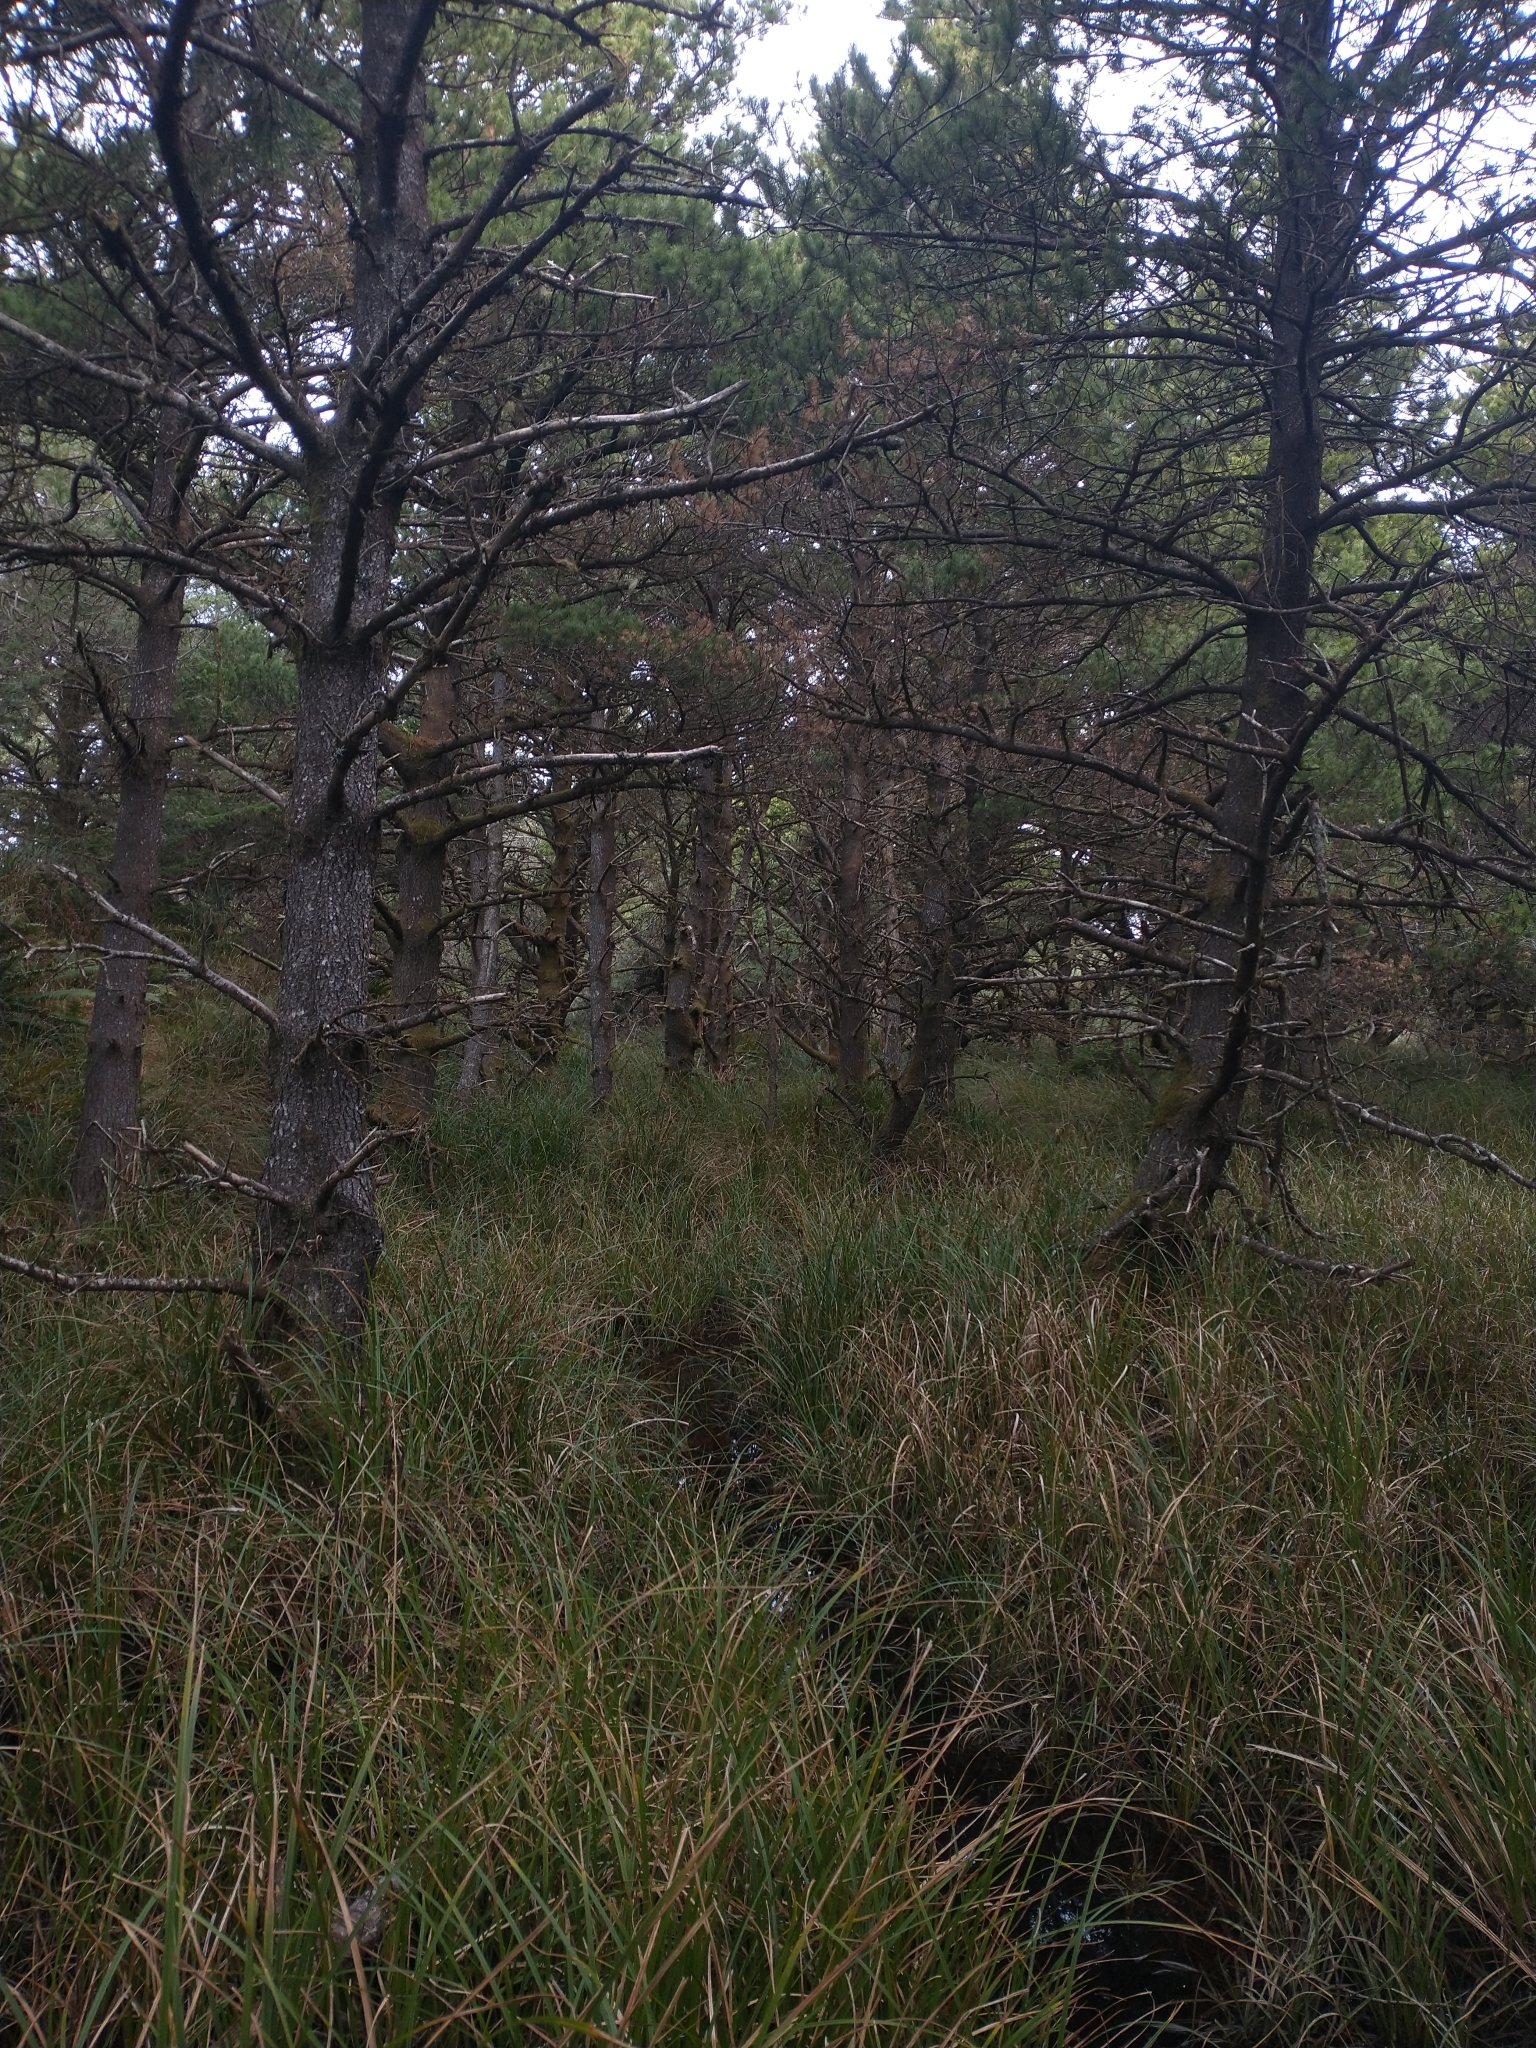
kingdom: Plantae
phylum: Tracheophyta
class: Pinopsida
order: Pinales
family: Pinaceae
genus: Pinus
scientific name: Pinus contorta
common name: Lodgepole pine
